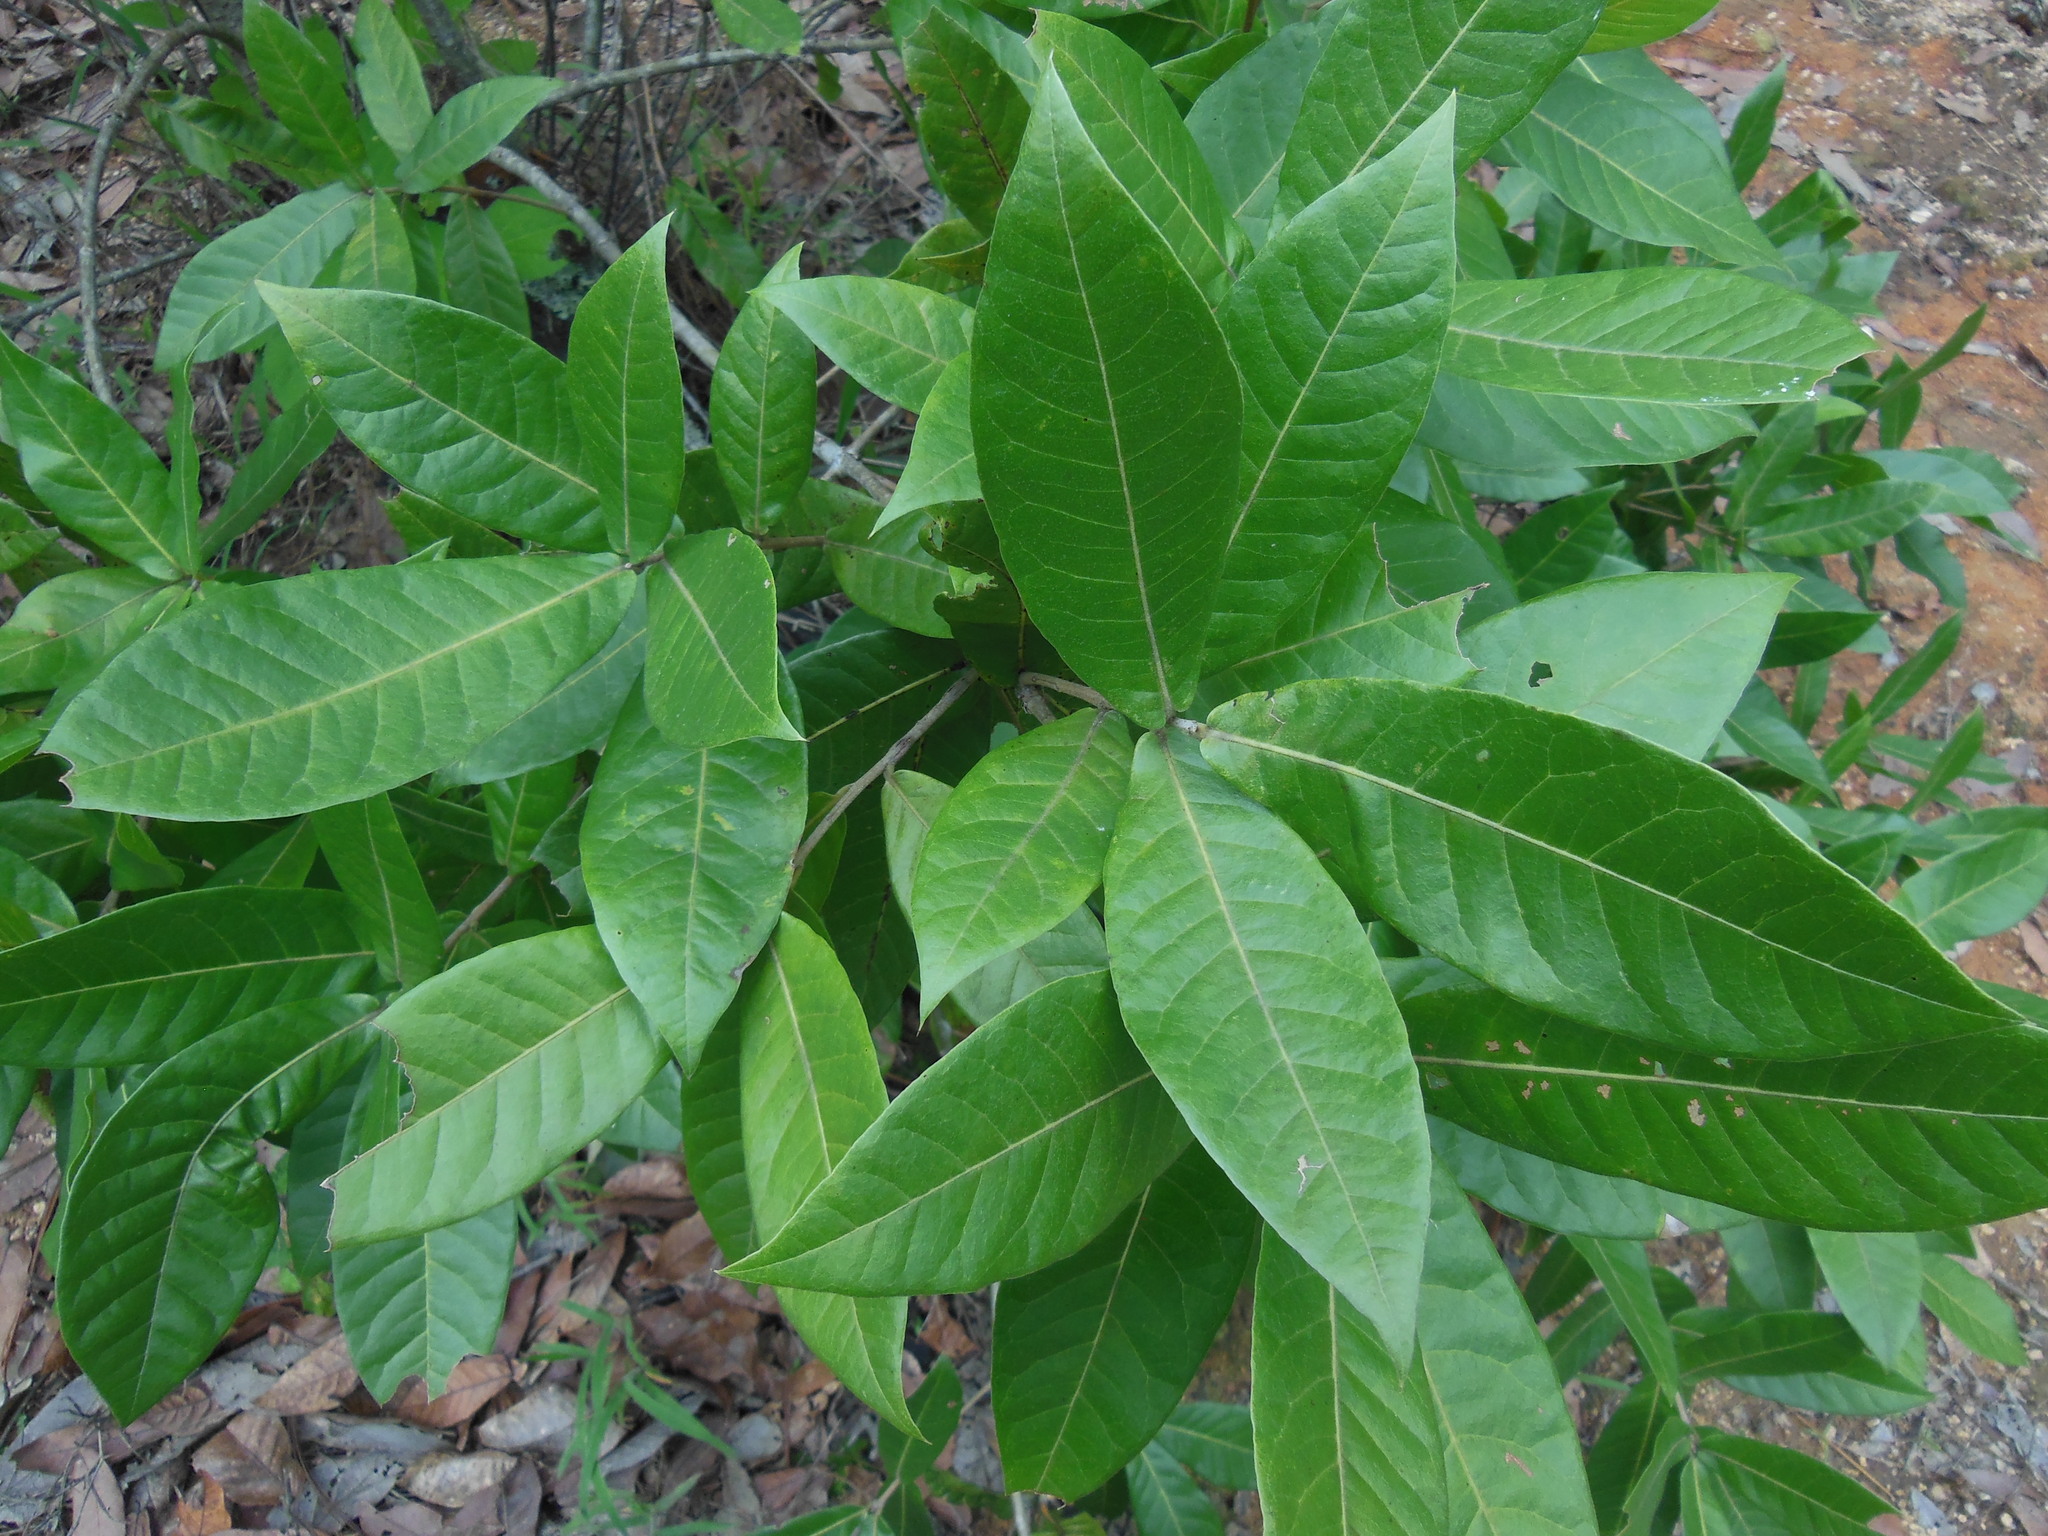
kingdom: Plantae
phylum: Tracheophyta
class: Magnoliopsida
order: Fagales
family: Fagaceae
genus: Quercus
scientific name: Quercus sapotifolia
